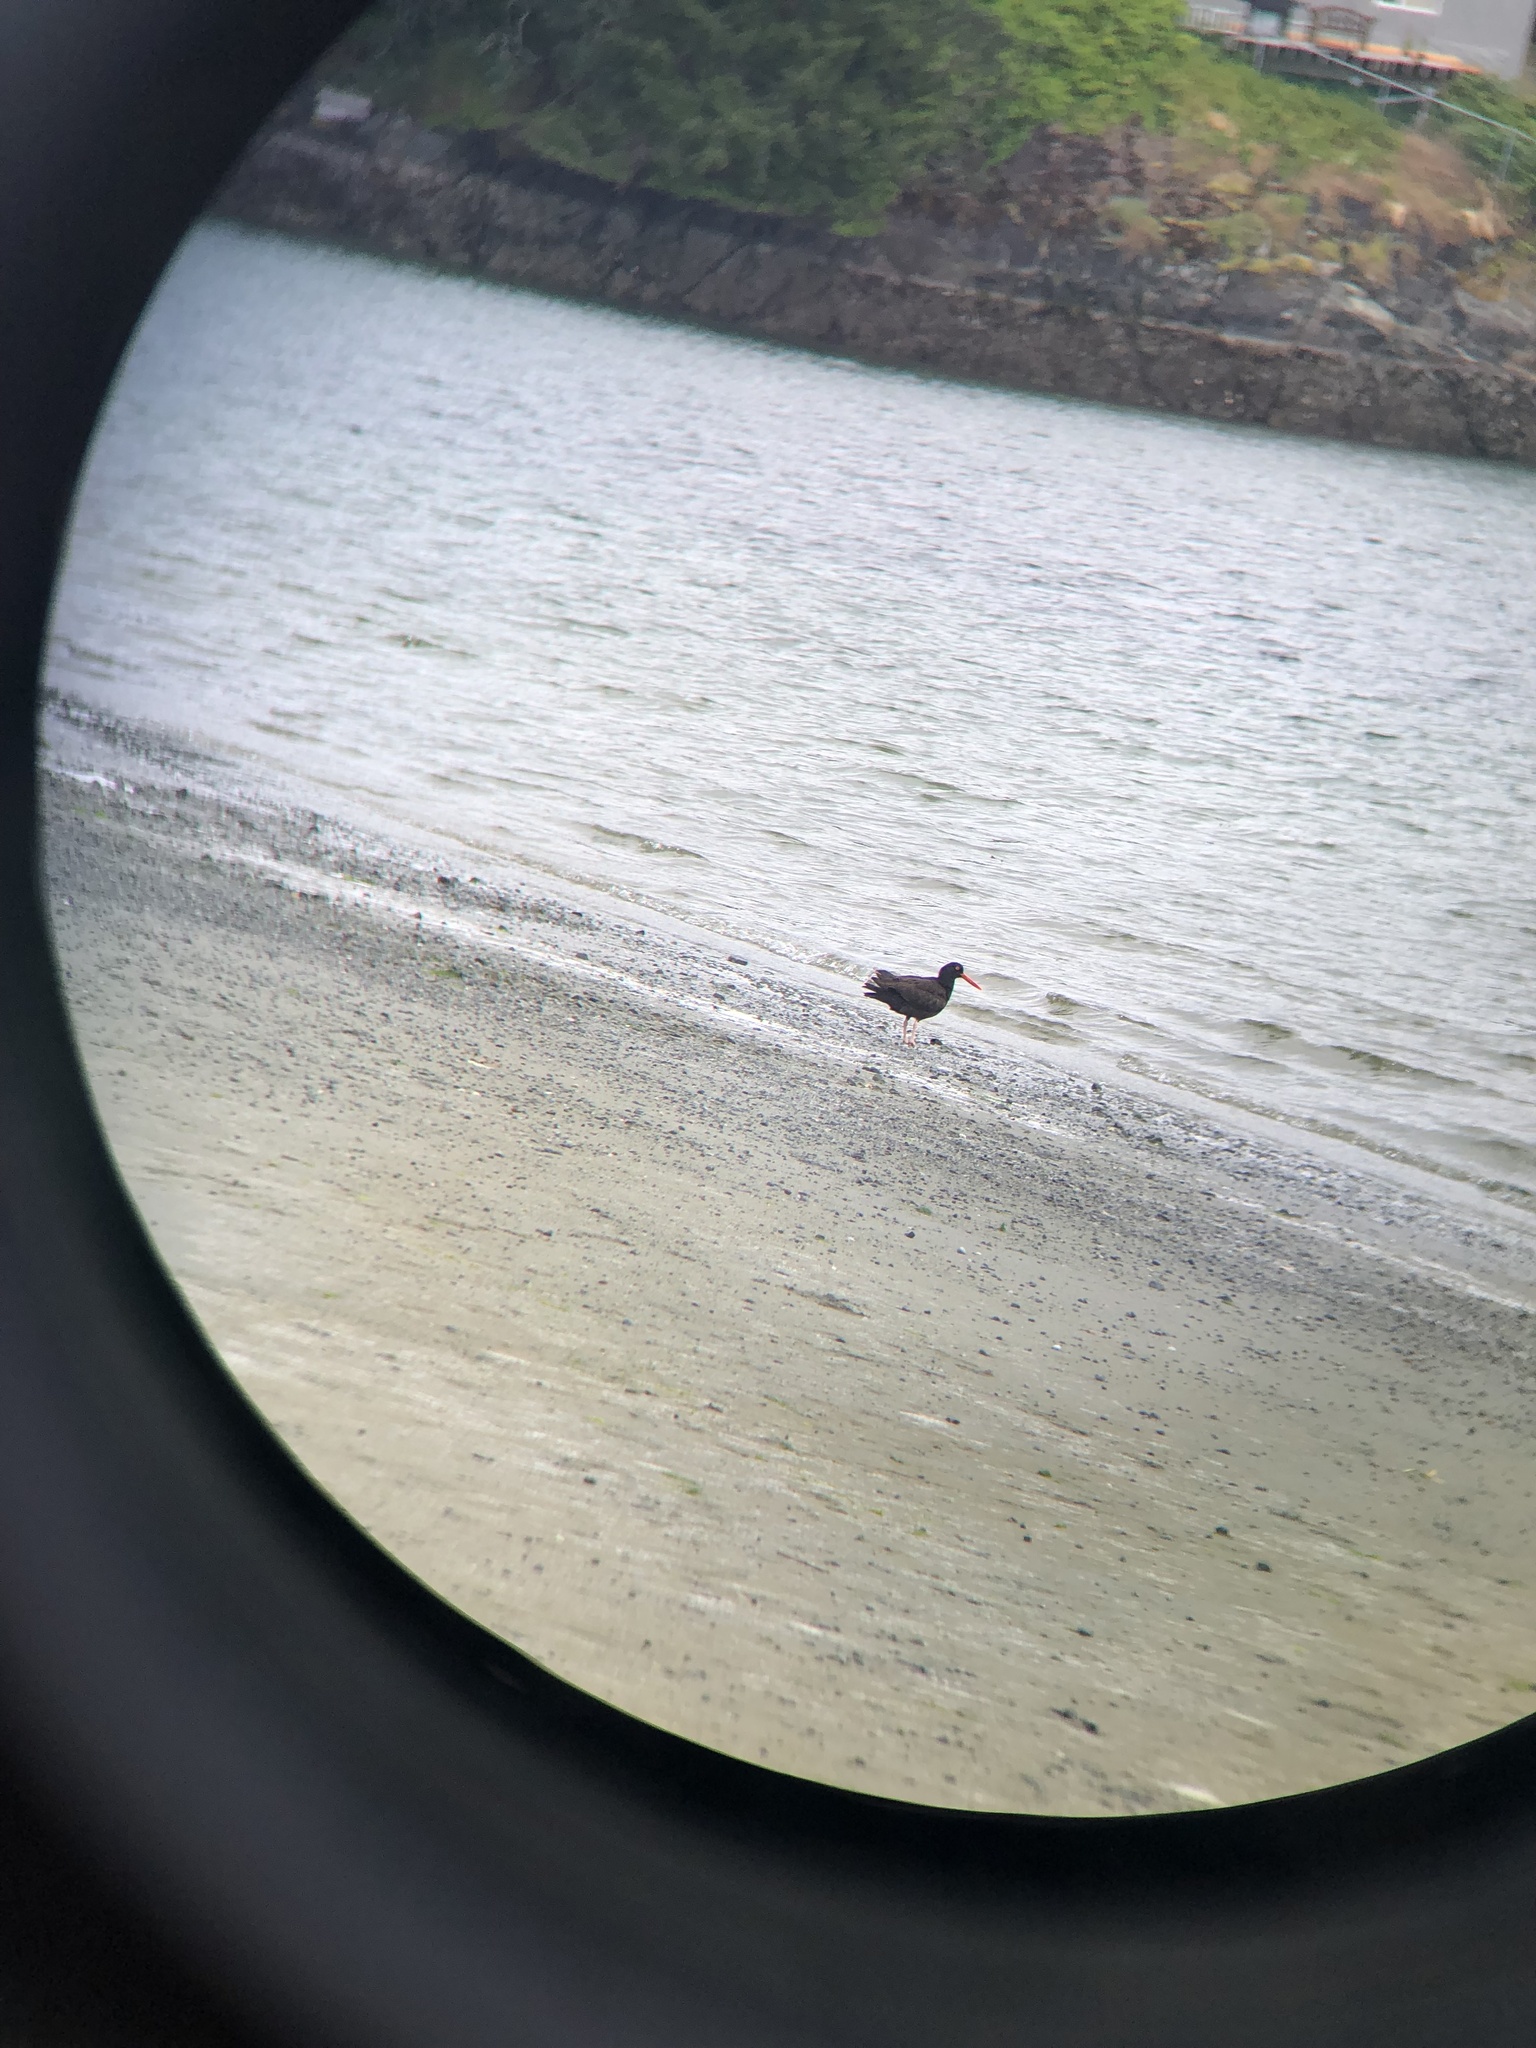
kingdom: Animalia
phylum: Chordata
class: Aves
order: Charadriiformes
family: Haematopodidae
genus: Haematopus
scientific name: Haematopus bachmani
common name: Black oystercatcher
